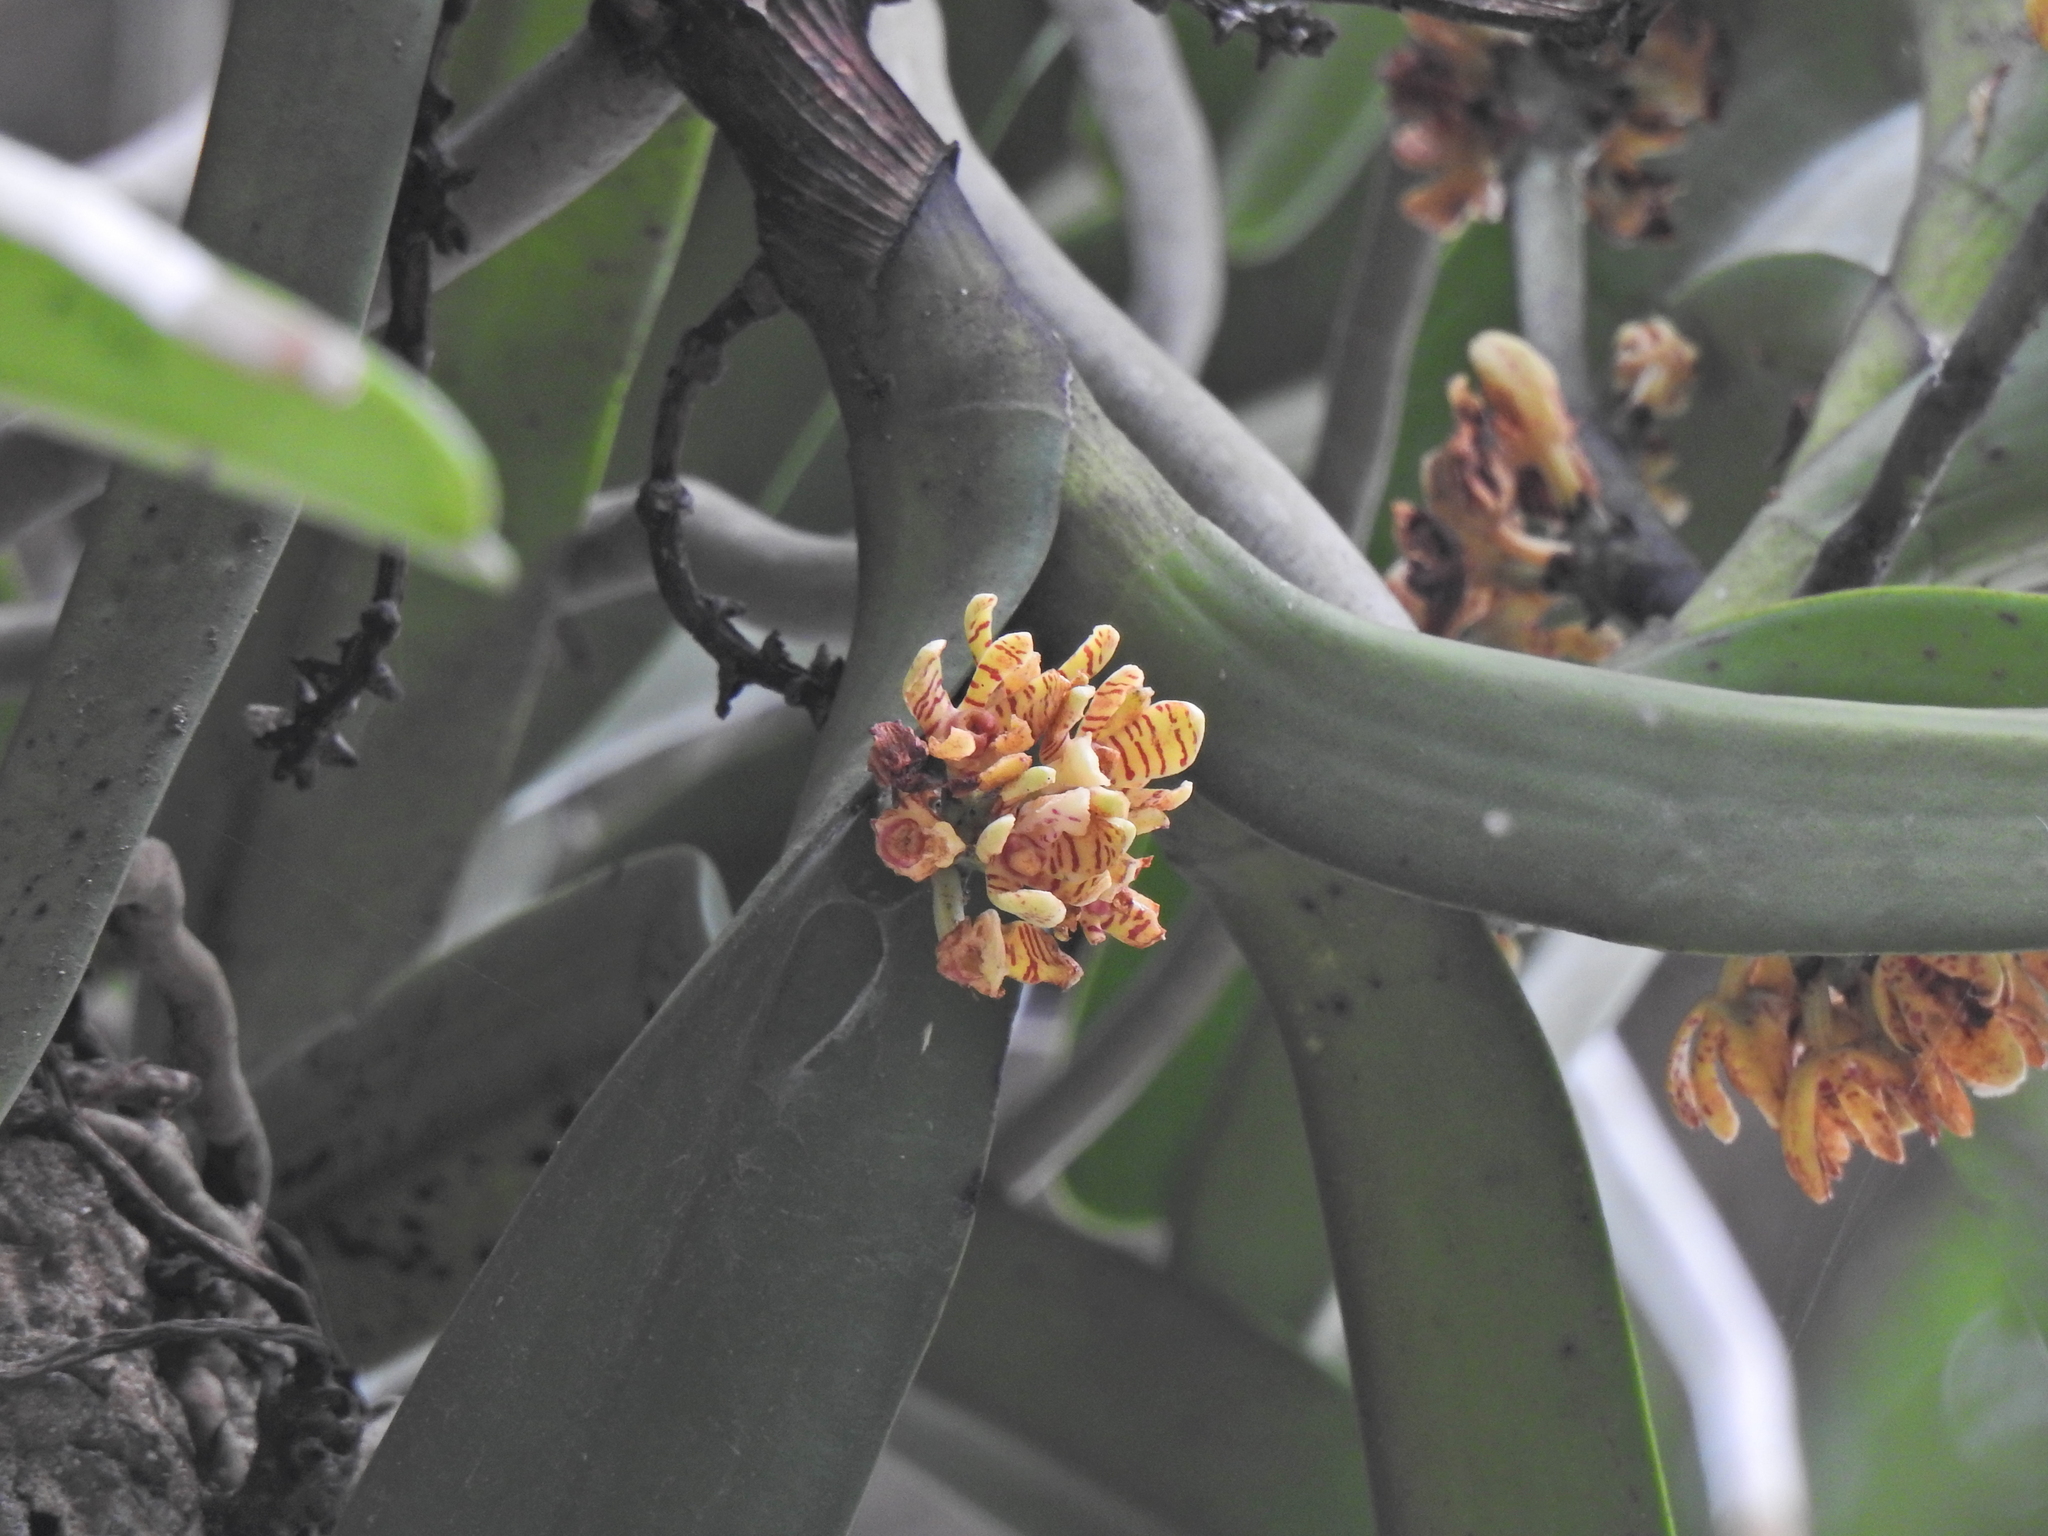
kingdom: Plantae
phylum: Tracheophyta
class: Liliopsida
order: Asparagales
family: Orchidaceae
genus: Acampe
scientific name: Acampe praemorsa
